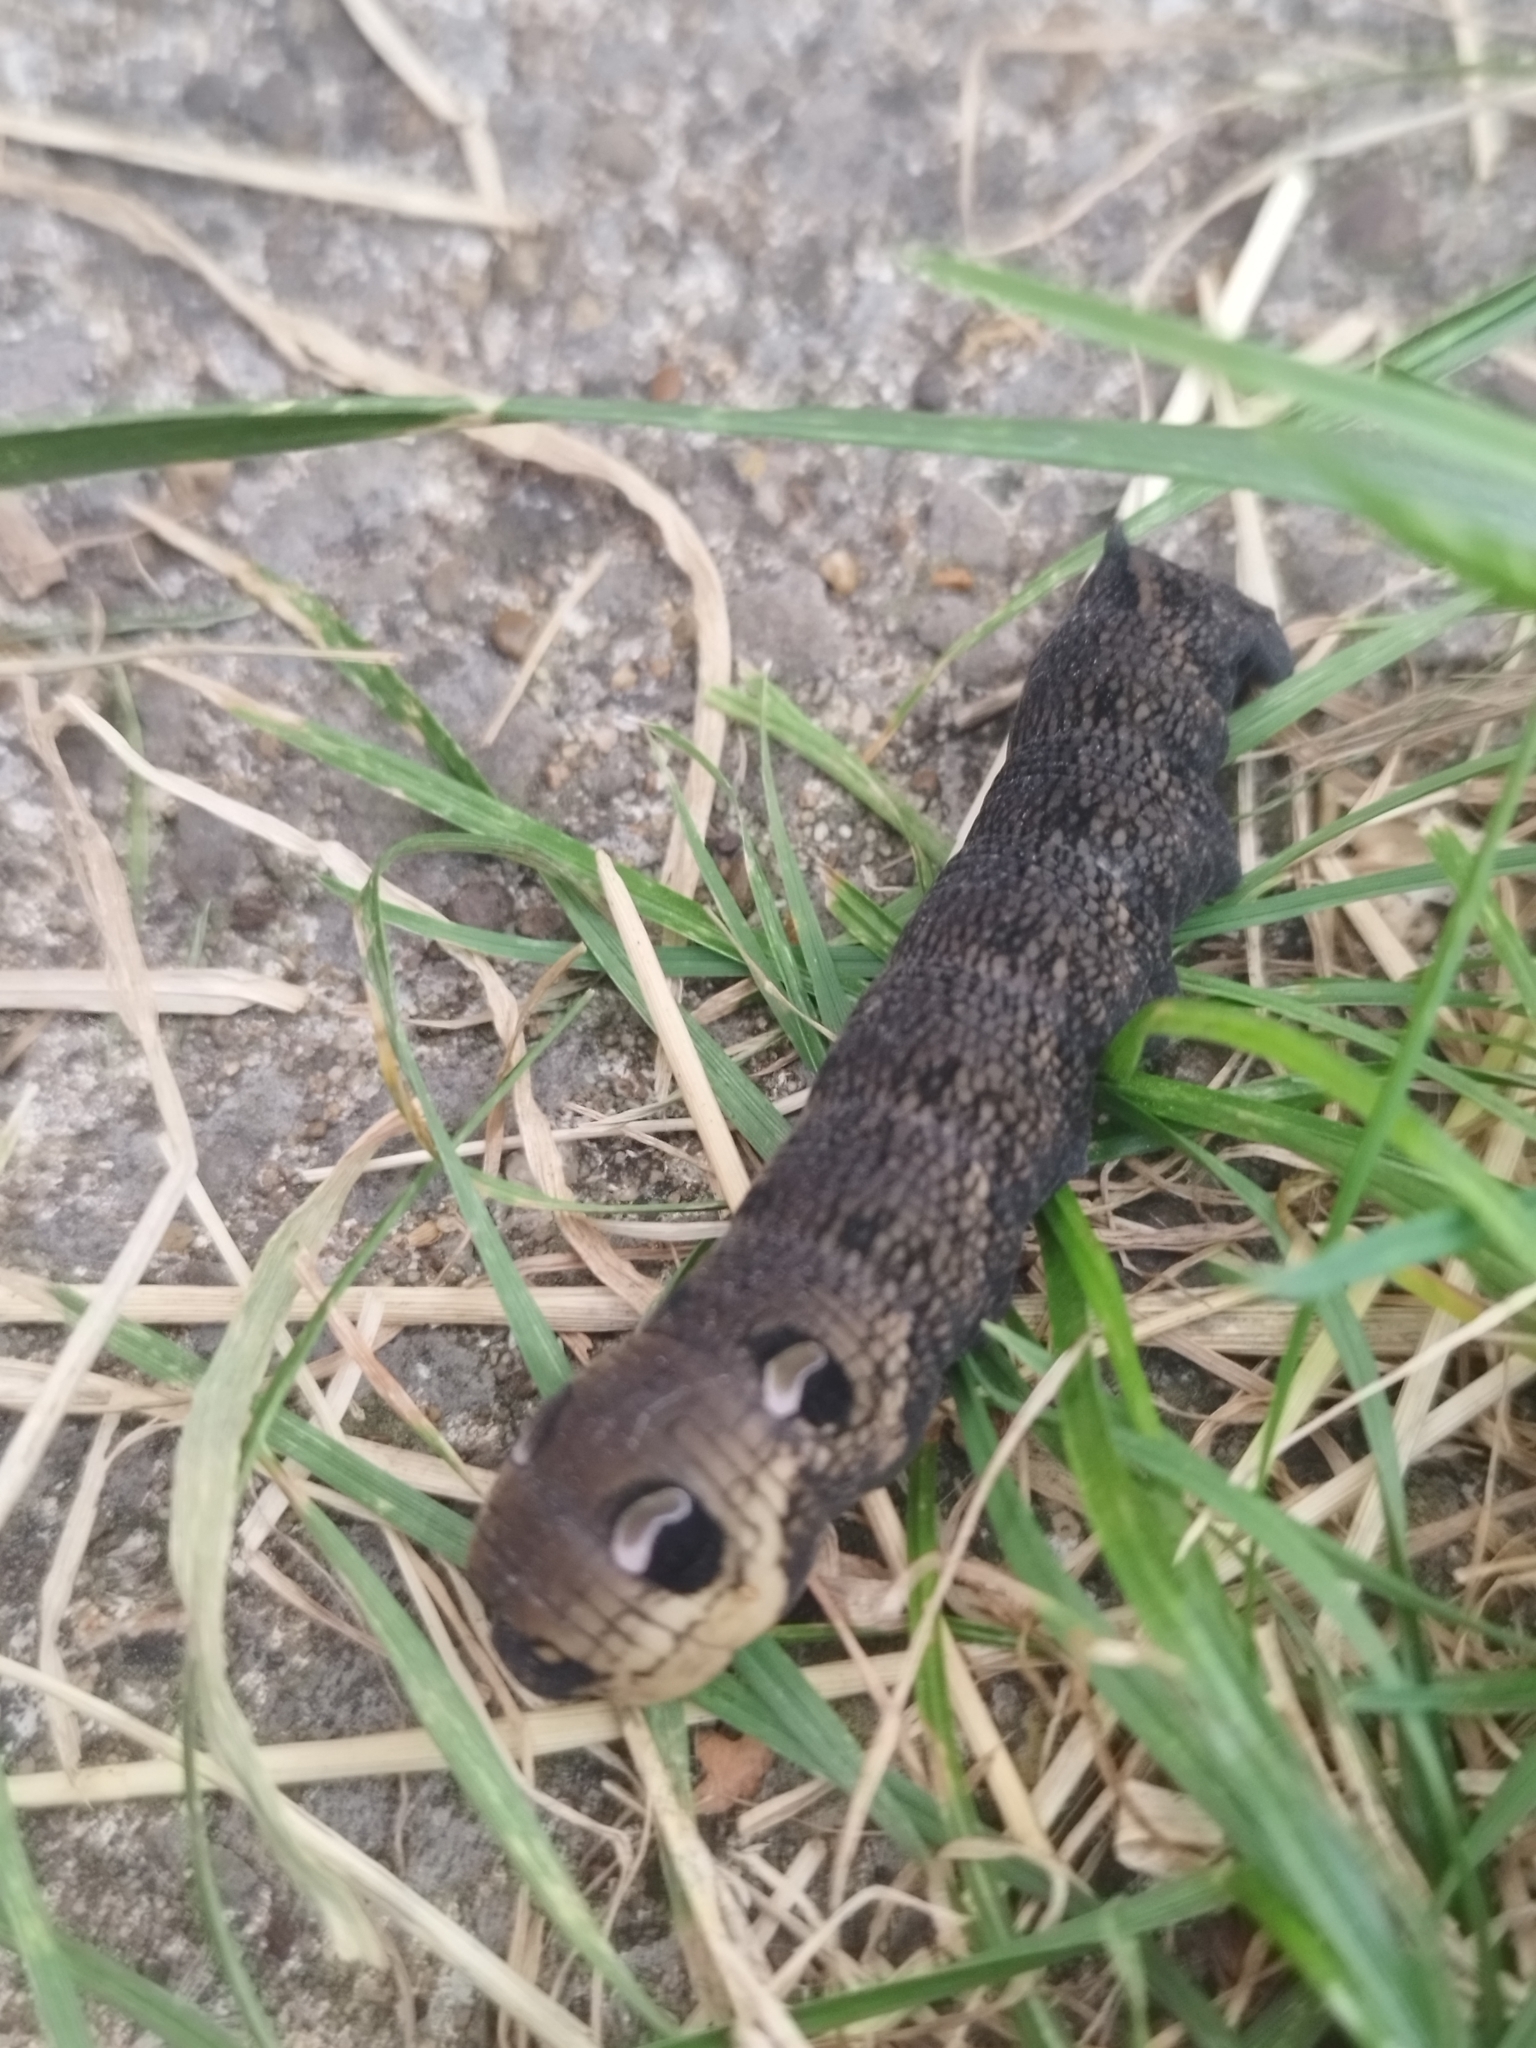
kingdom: Animalia
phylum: Arthropoda
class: Insecta
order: Lepidoptera
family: Sphingidae
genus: Deilephila
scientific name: Deilephila elpenor
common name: Elephant hawk-moth
